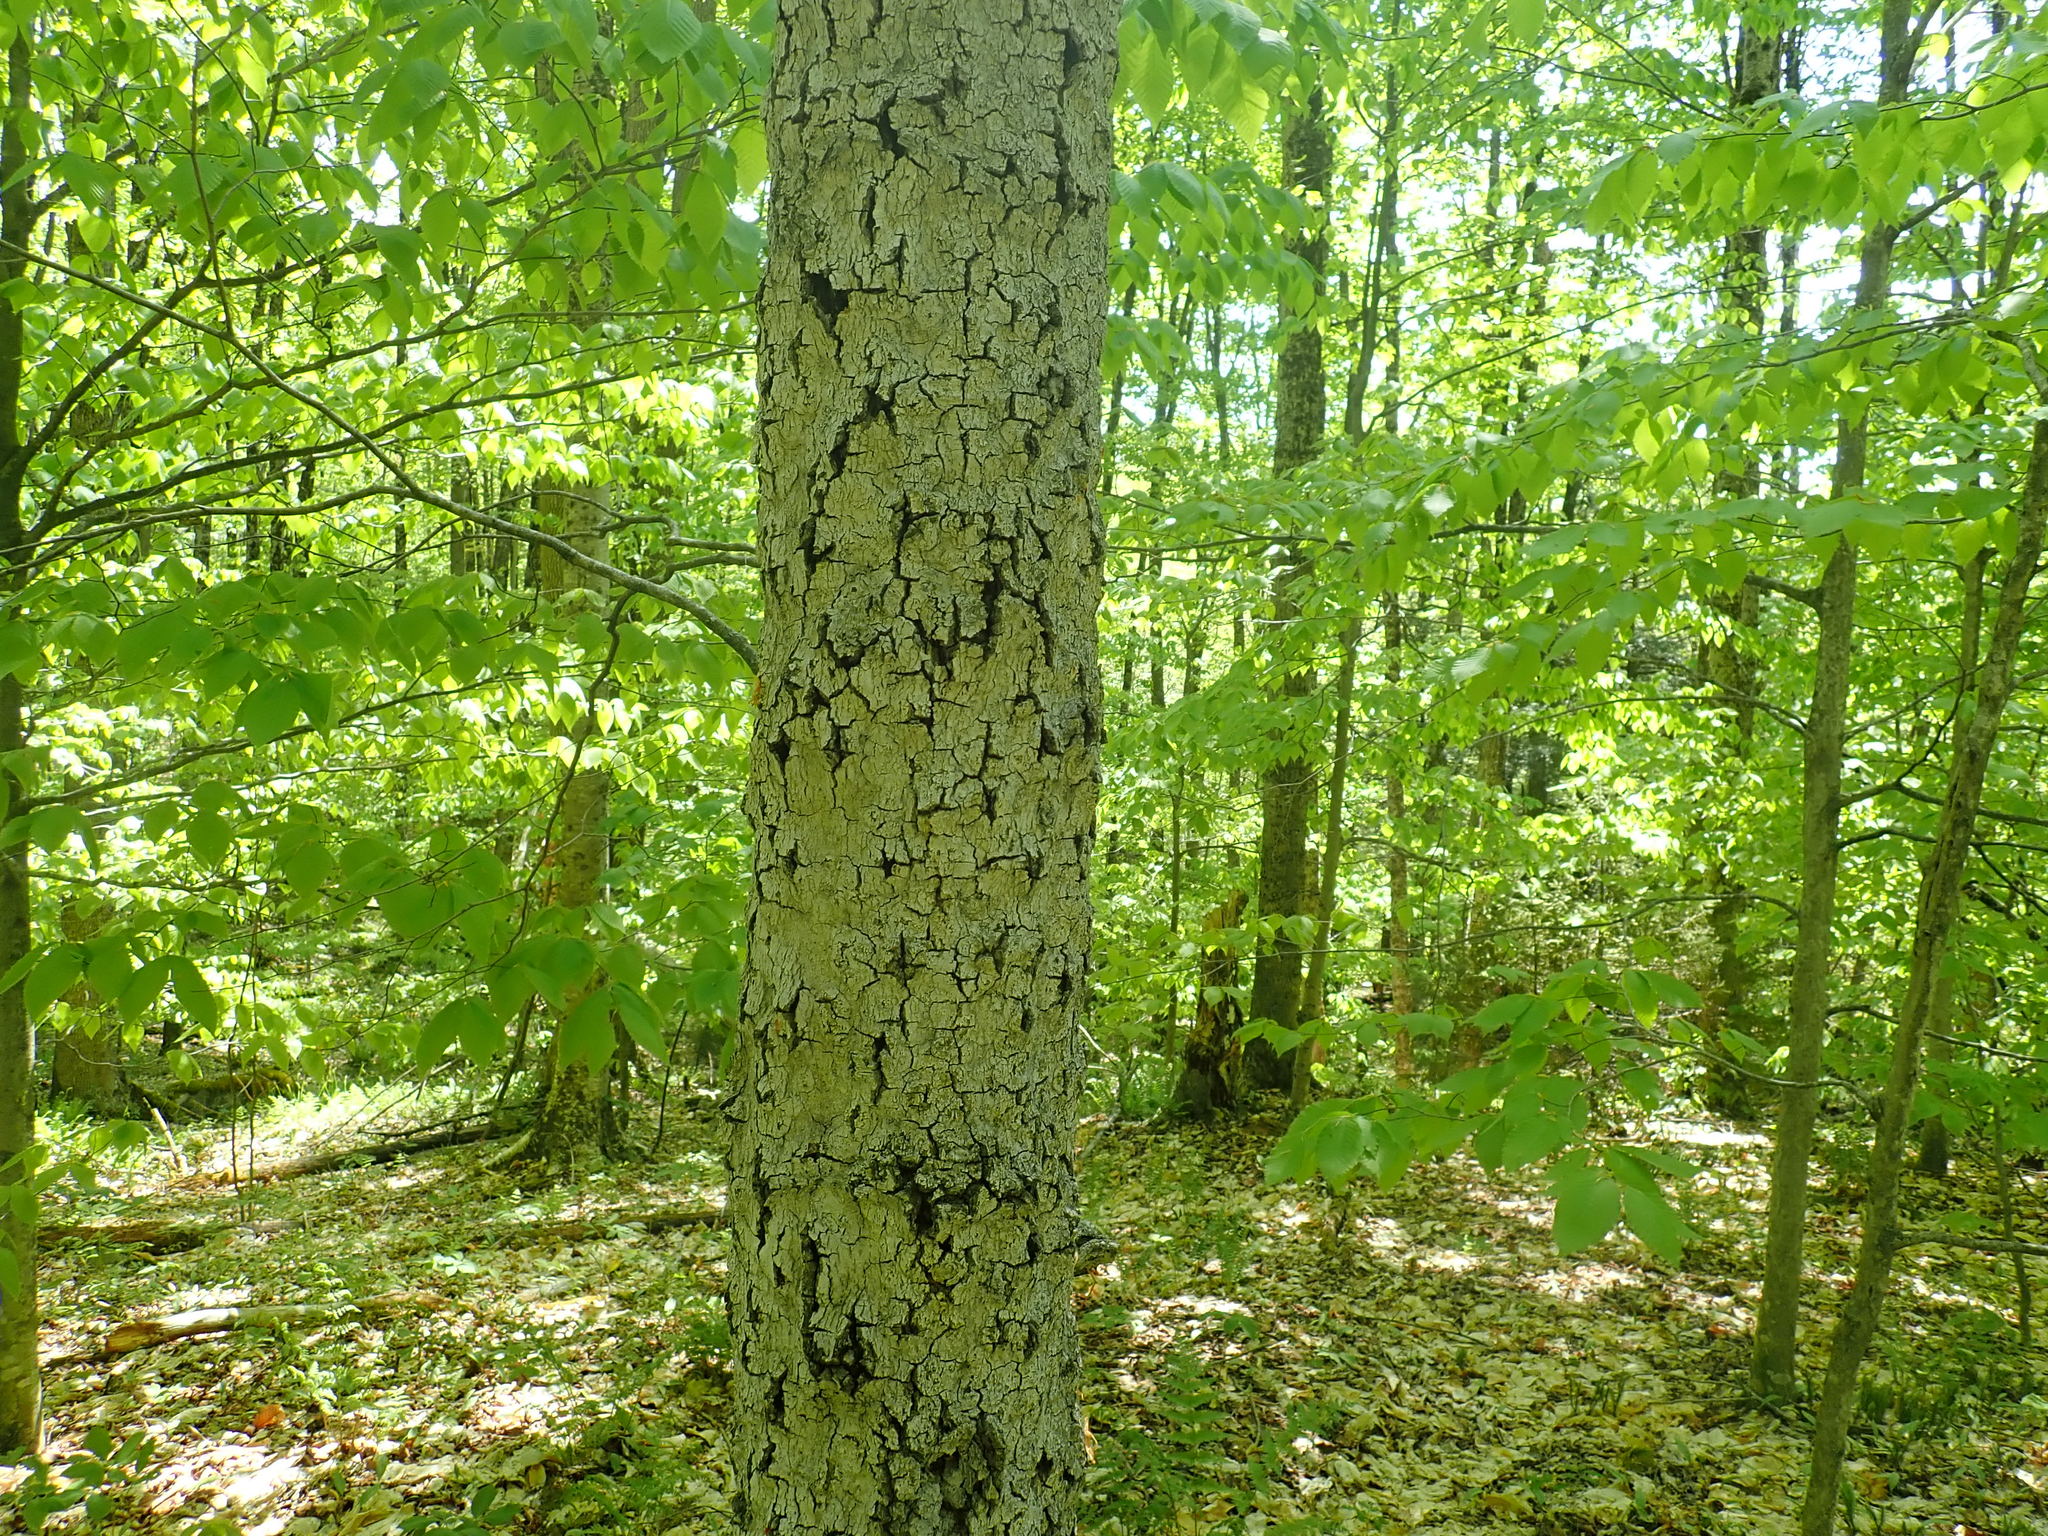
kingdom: Fungi
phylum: Ascomycota
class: Sordariomycetes
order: Hypocreales
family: Nectriaceae
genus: Neonectria
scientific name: Neonectria faginata
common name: Beech bark canker
